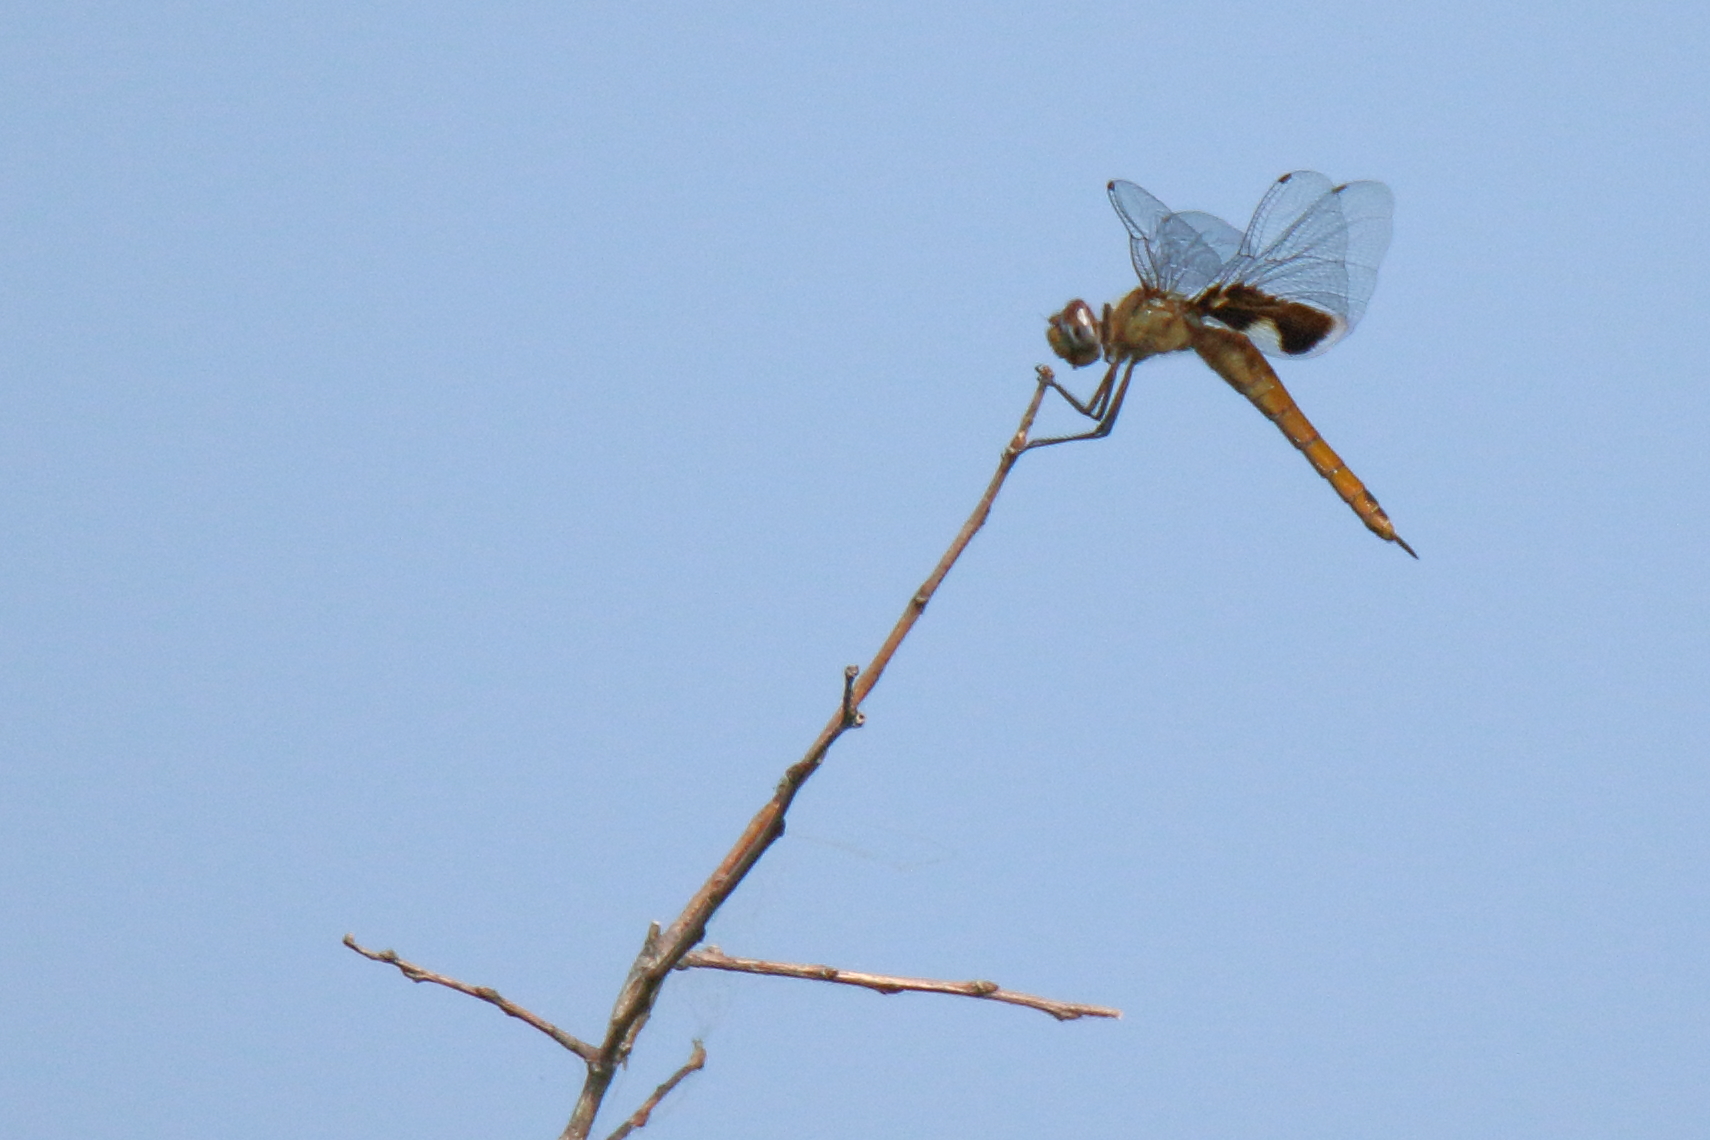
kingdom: Animalia
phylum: Arthropoda
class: Insecta
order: Odonata
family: Libellulidae
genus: Tramea
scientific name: Tramea onusta
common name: Red saddlebags
